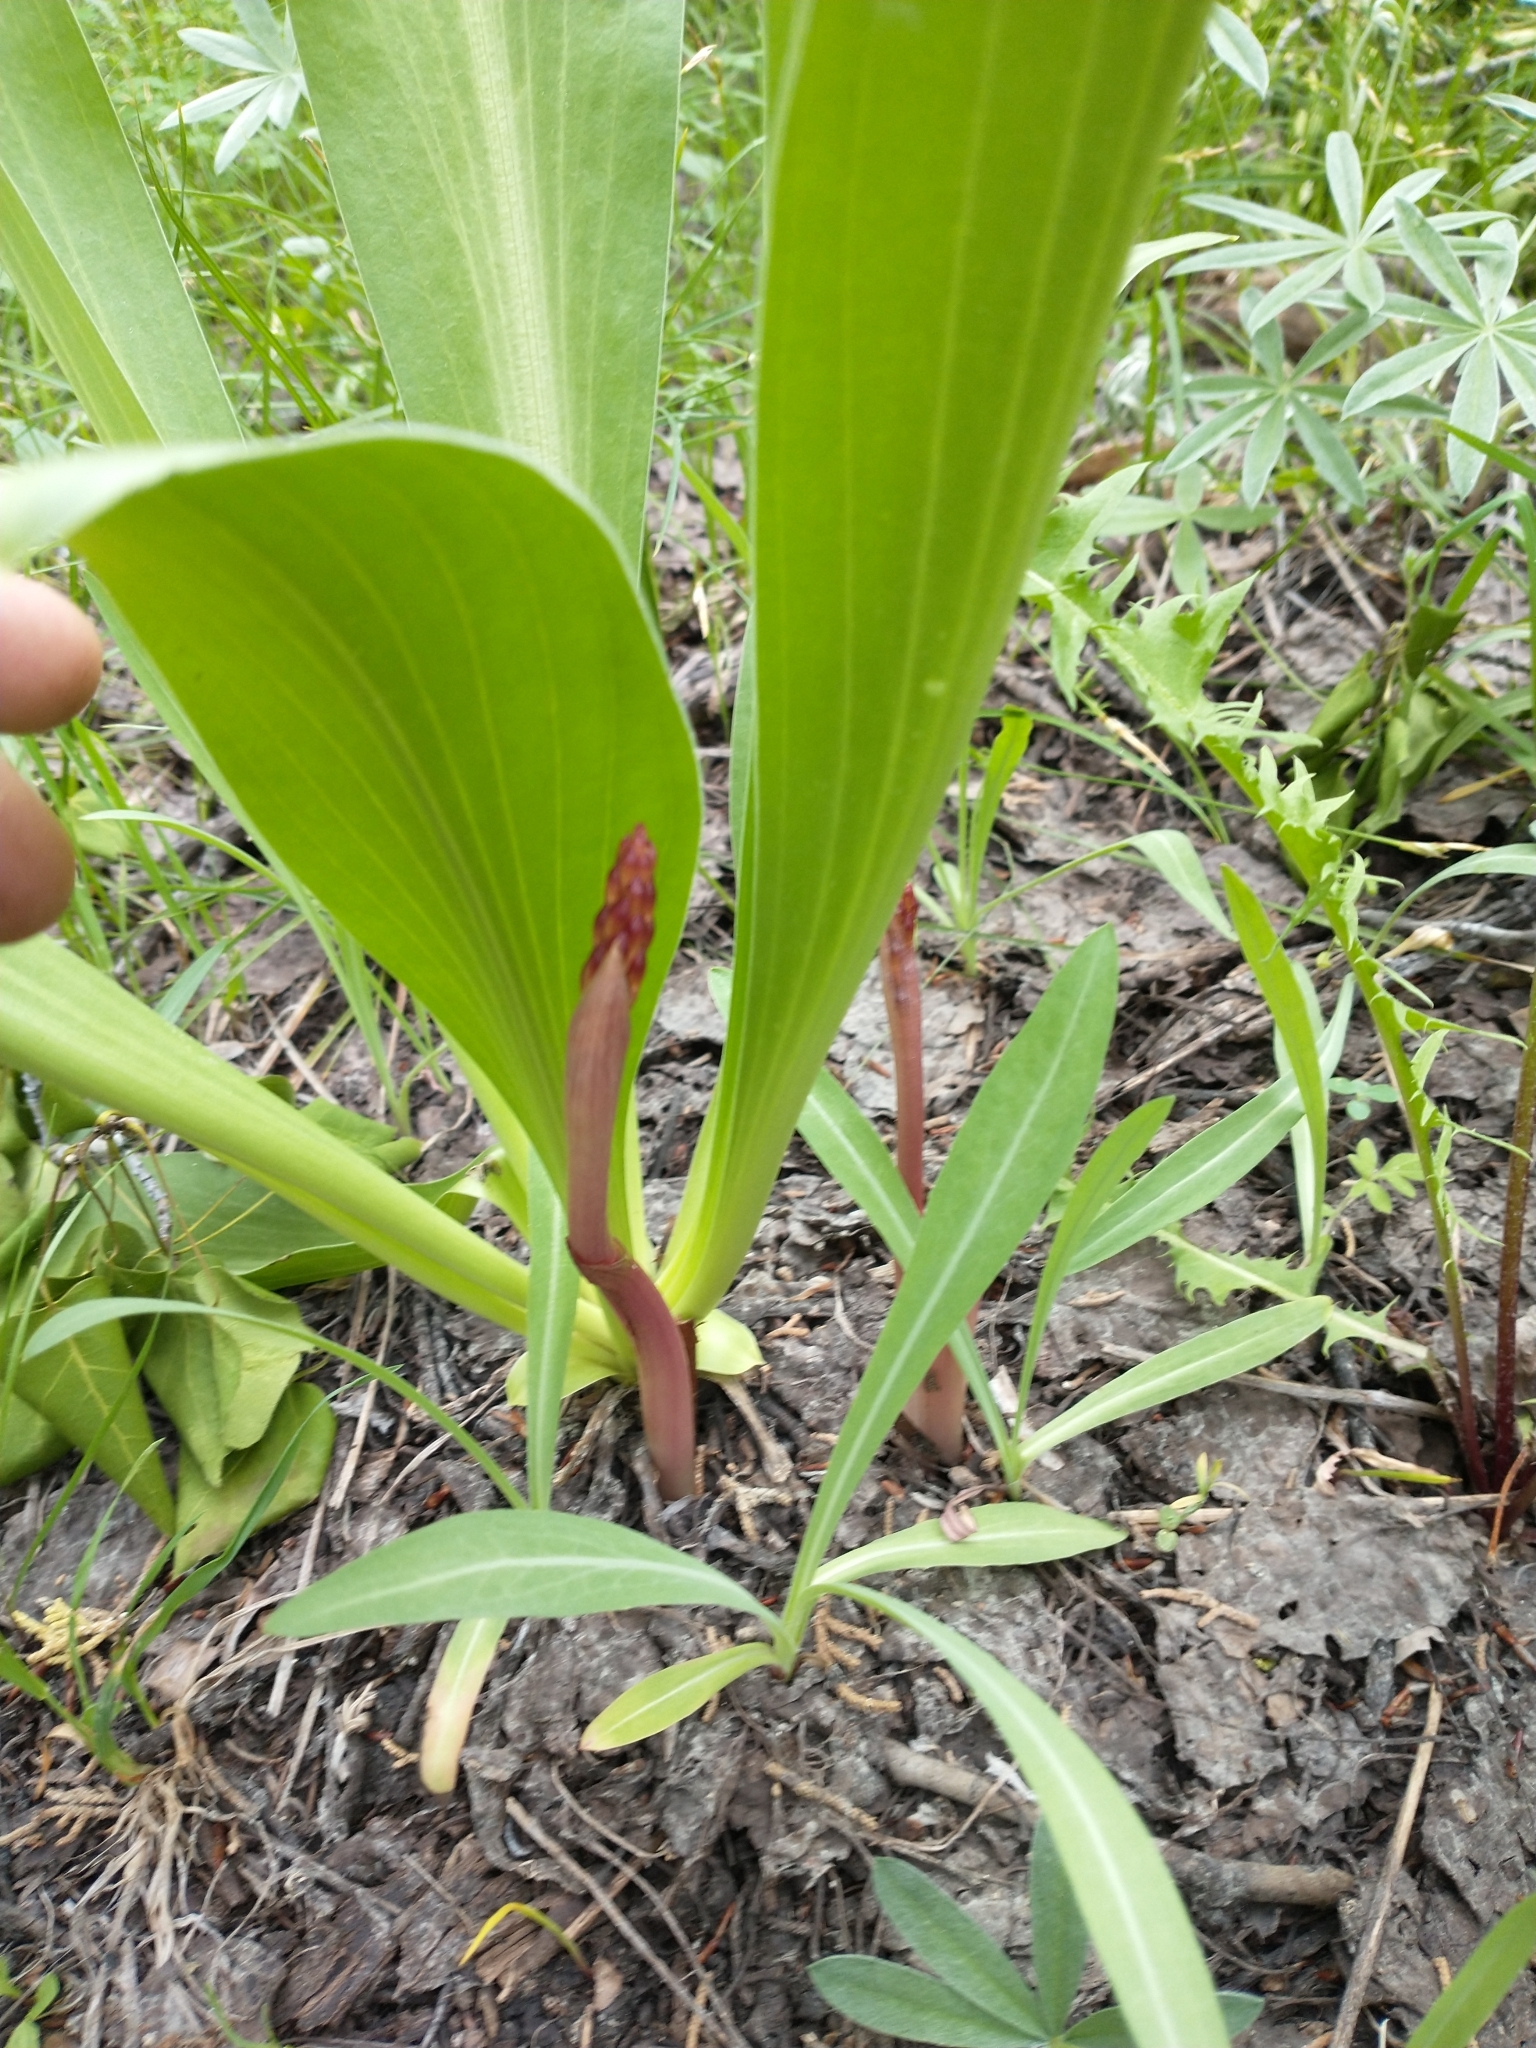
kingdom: Plantae
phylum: Tracheophyta
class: Magnoliopsida
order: Gentianales
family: Gentianaceae
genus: Frasera
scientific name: Frasera speciosa
